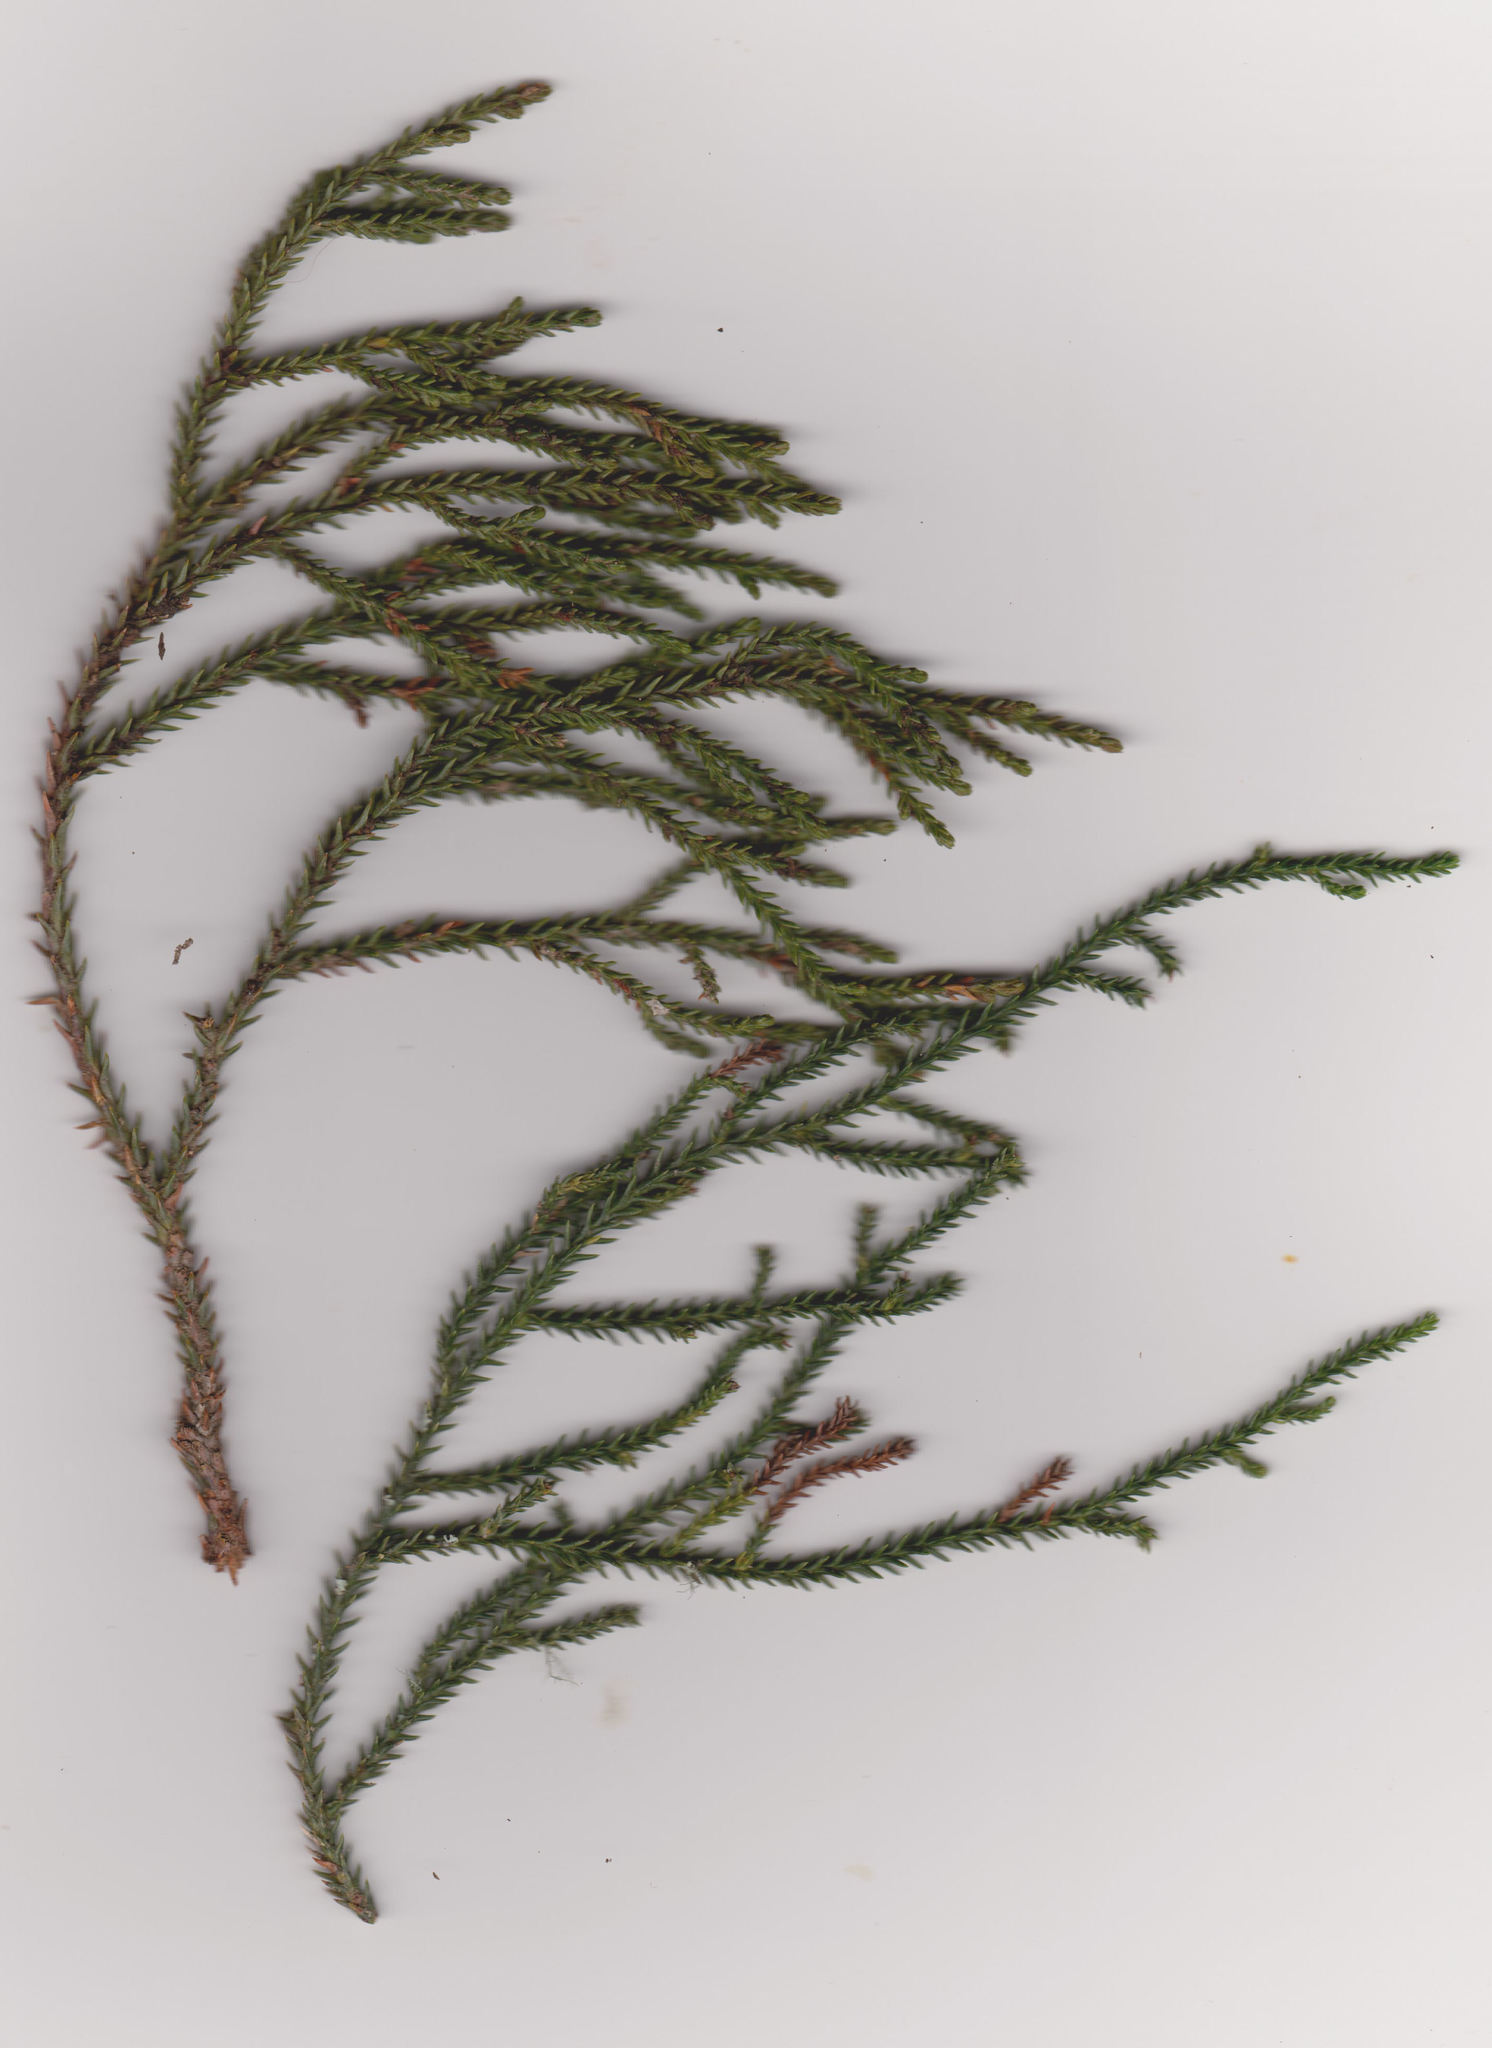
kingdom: Plantae
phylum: Tracheophyta
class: Pinopsida
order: Pinales
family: Podocarpaceae
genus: Dacrydium
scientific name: Dacrydium cupressinum
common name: Red pine
